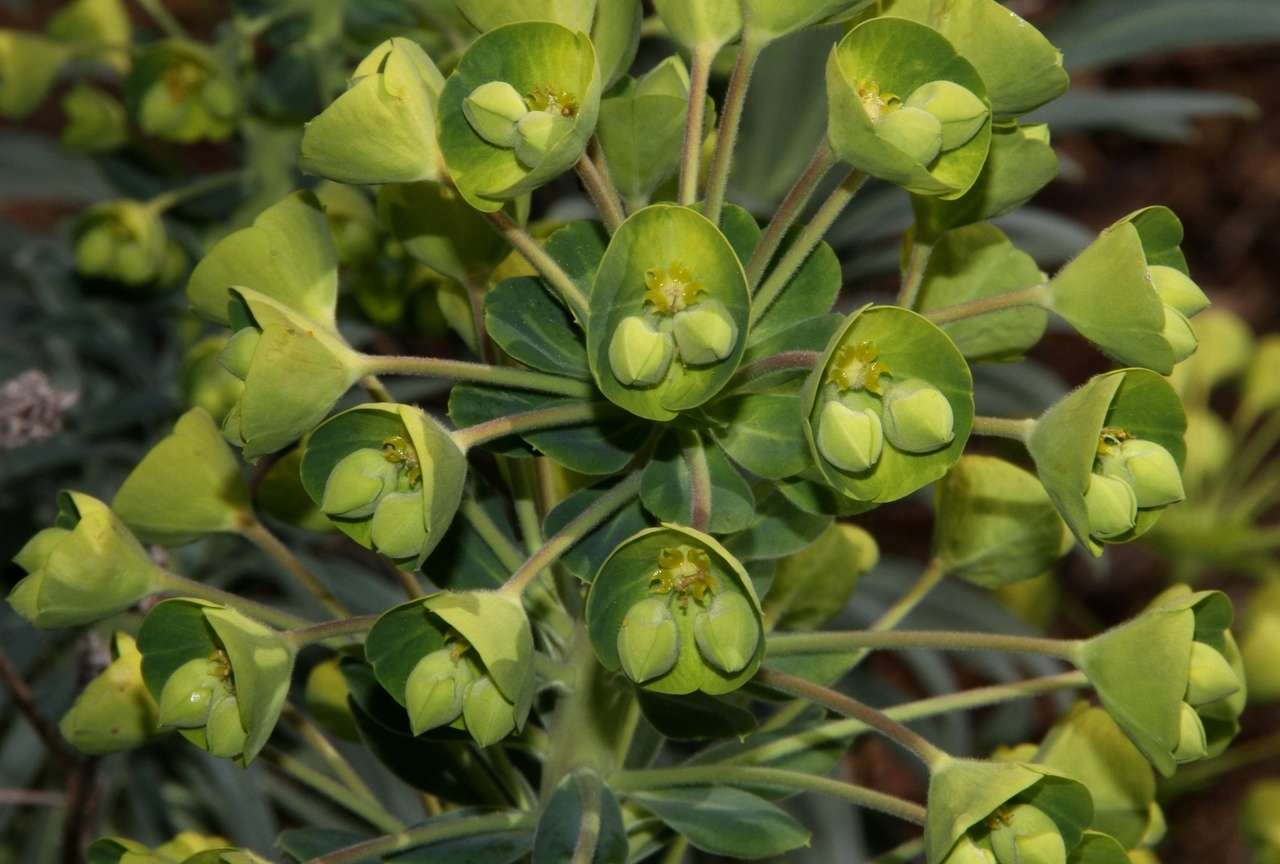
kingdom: Plantae
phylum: Tracheophyta
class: Magnoliopsida
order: Malpighiales
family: Euphorbiaceae
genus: Euphorbia
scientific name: Euphorbia characias
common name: Mediterranean spurge
